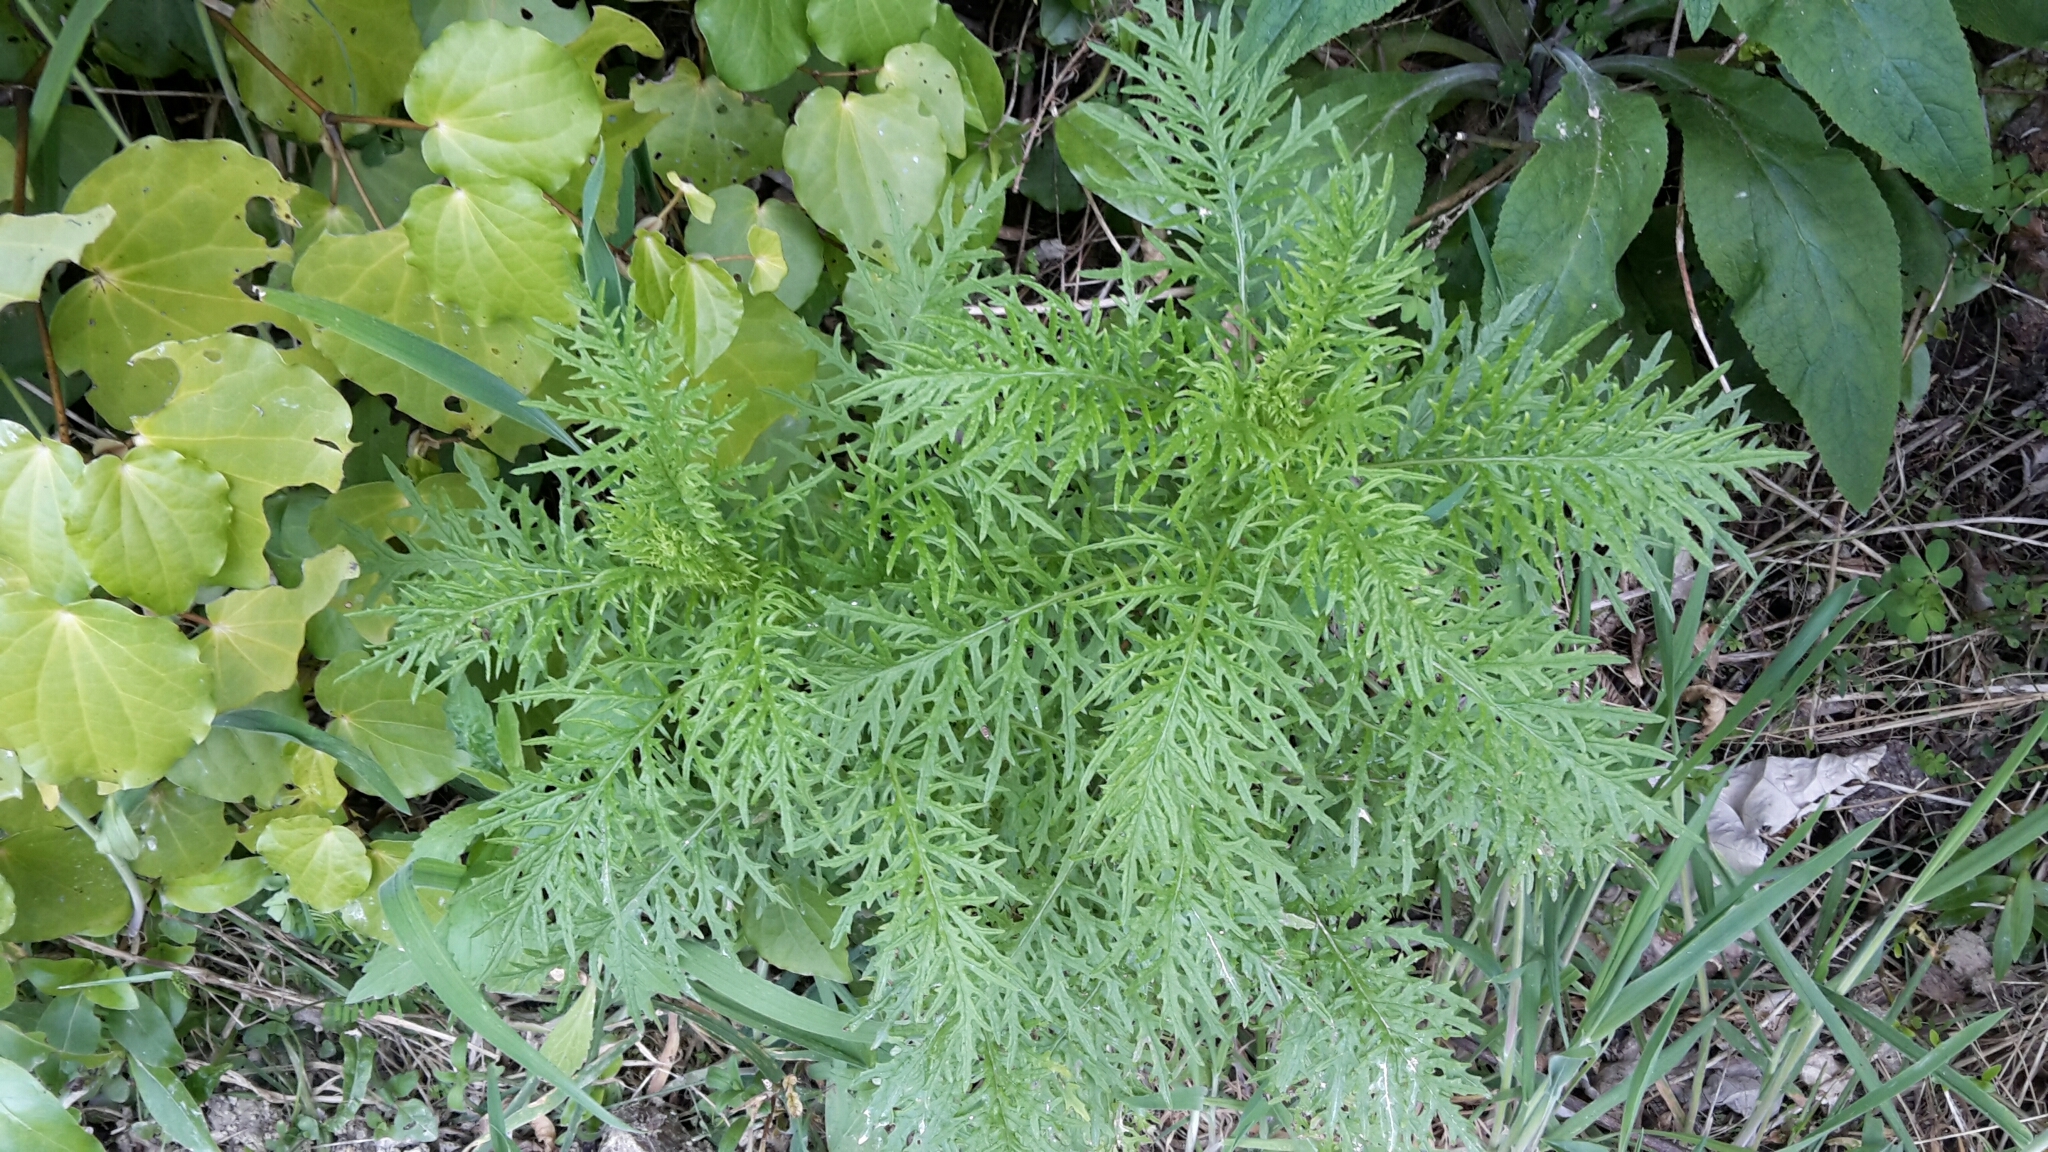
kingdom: Plantae
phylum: Tracheophyta
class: Magnoliopsida
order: Asterales
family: Asteraceae
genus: Senecio
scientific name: Senecio bipinnatisectus
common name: Australian fireweed
